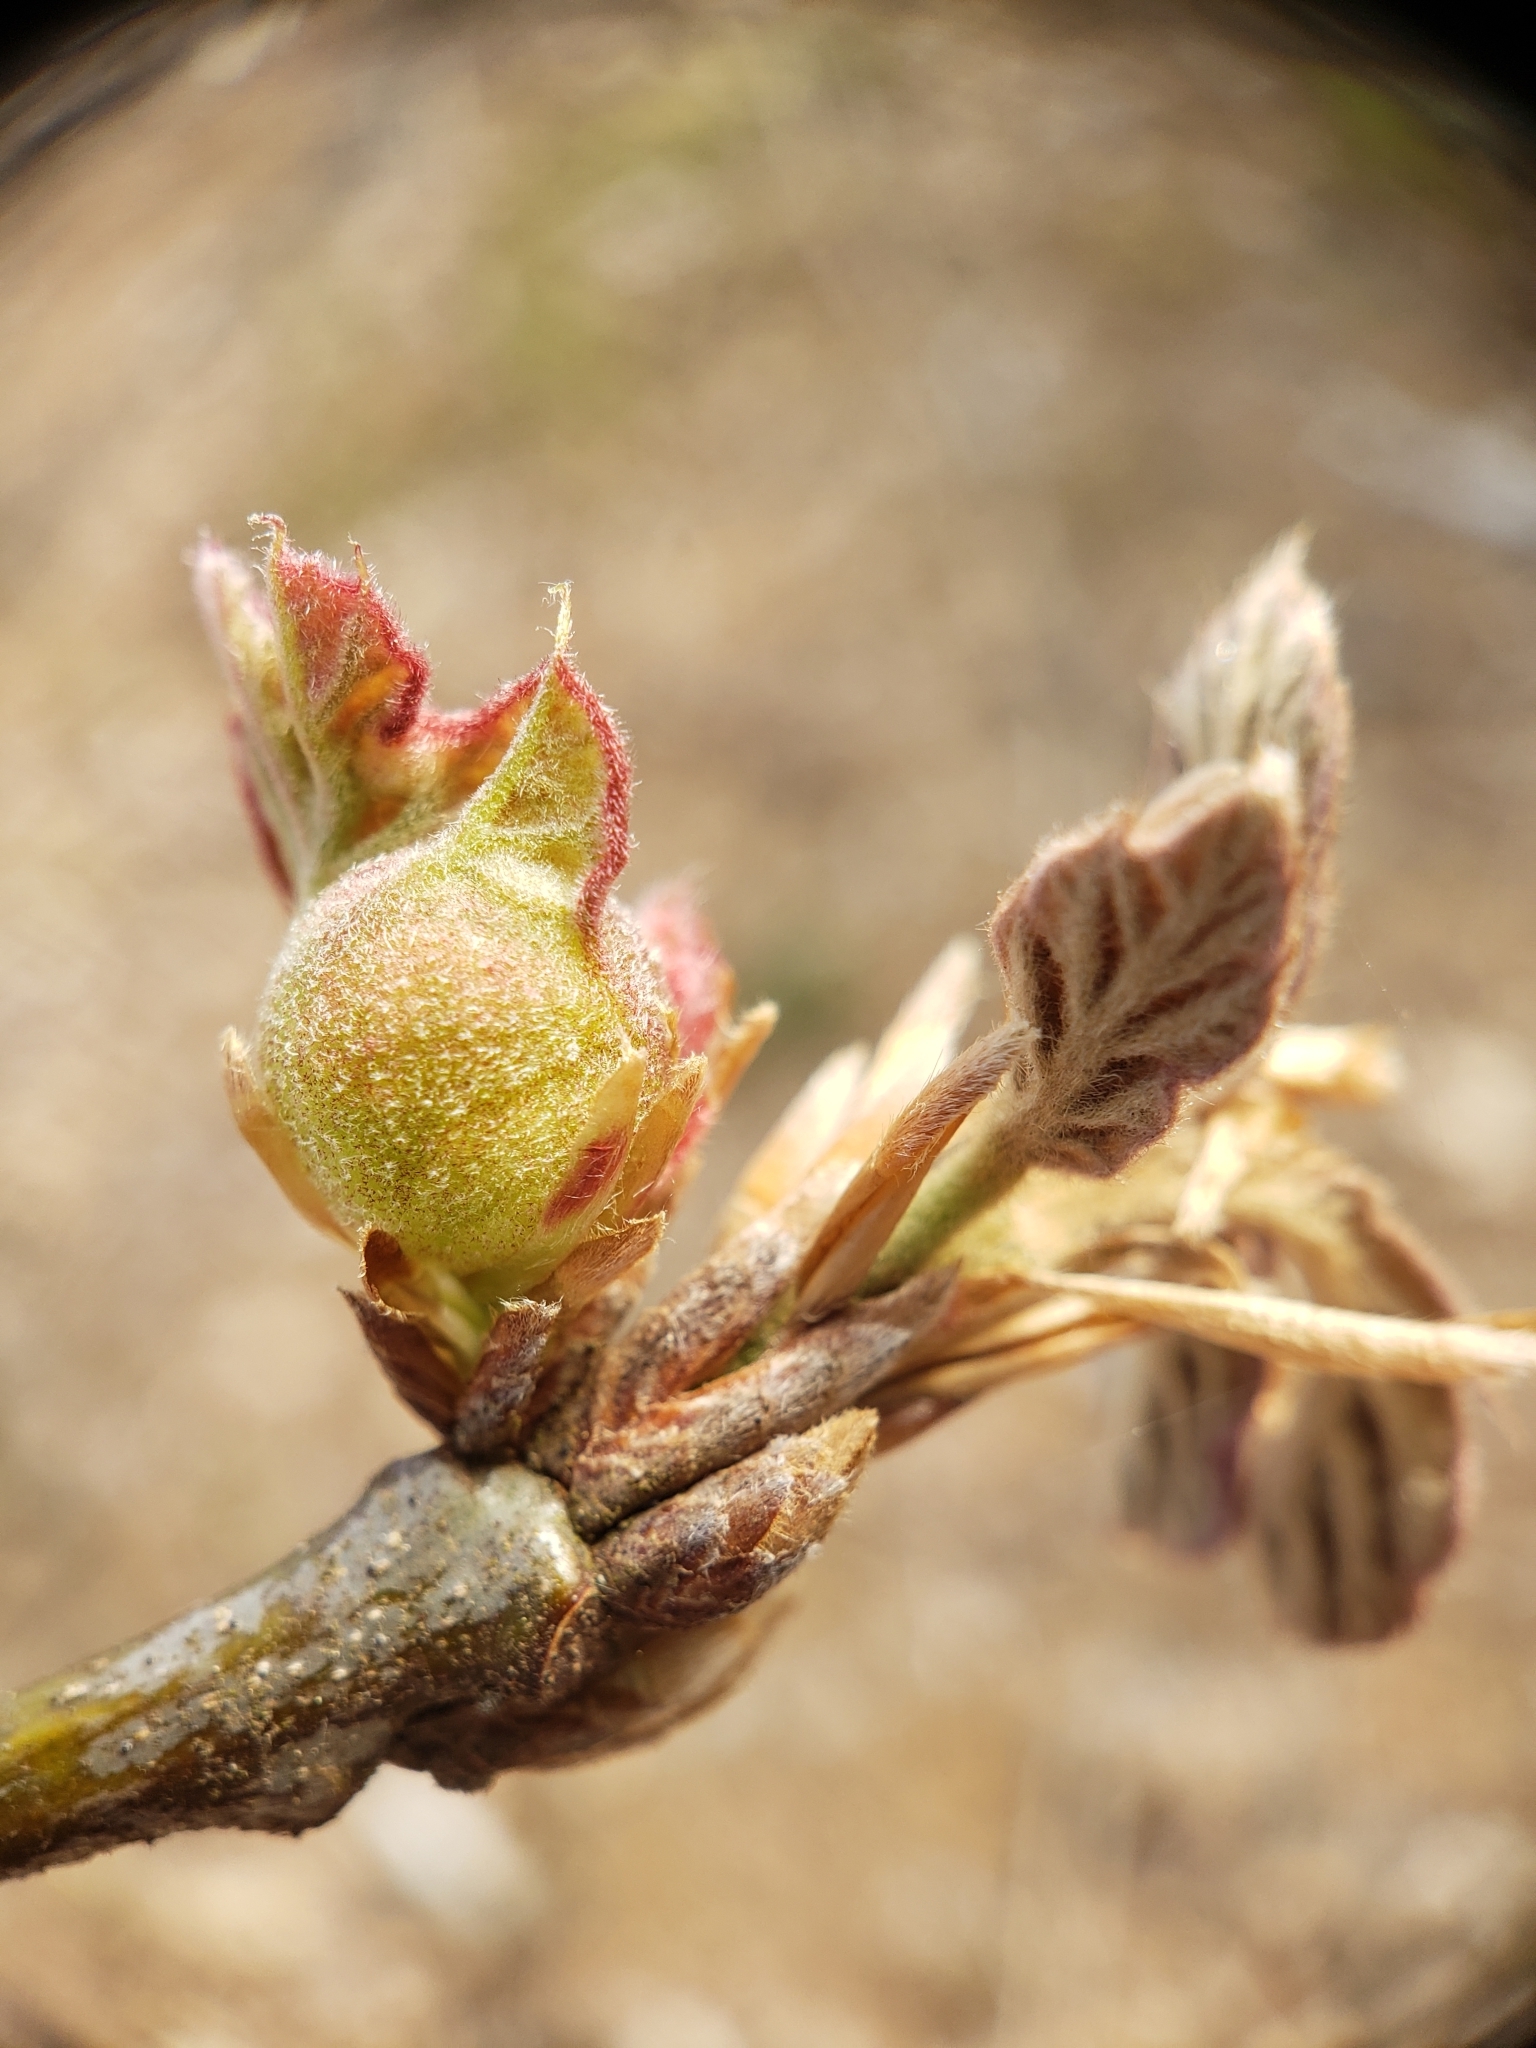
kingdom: Animalia
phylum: Arthropoda
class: Insecta
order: Hymenoptera
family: Cynipidae
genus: Dryocosmus
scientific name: Dryocosmus quercuspalustris
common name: Succulent oak gall wasp
